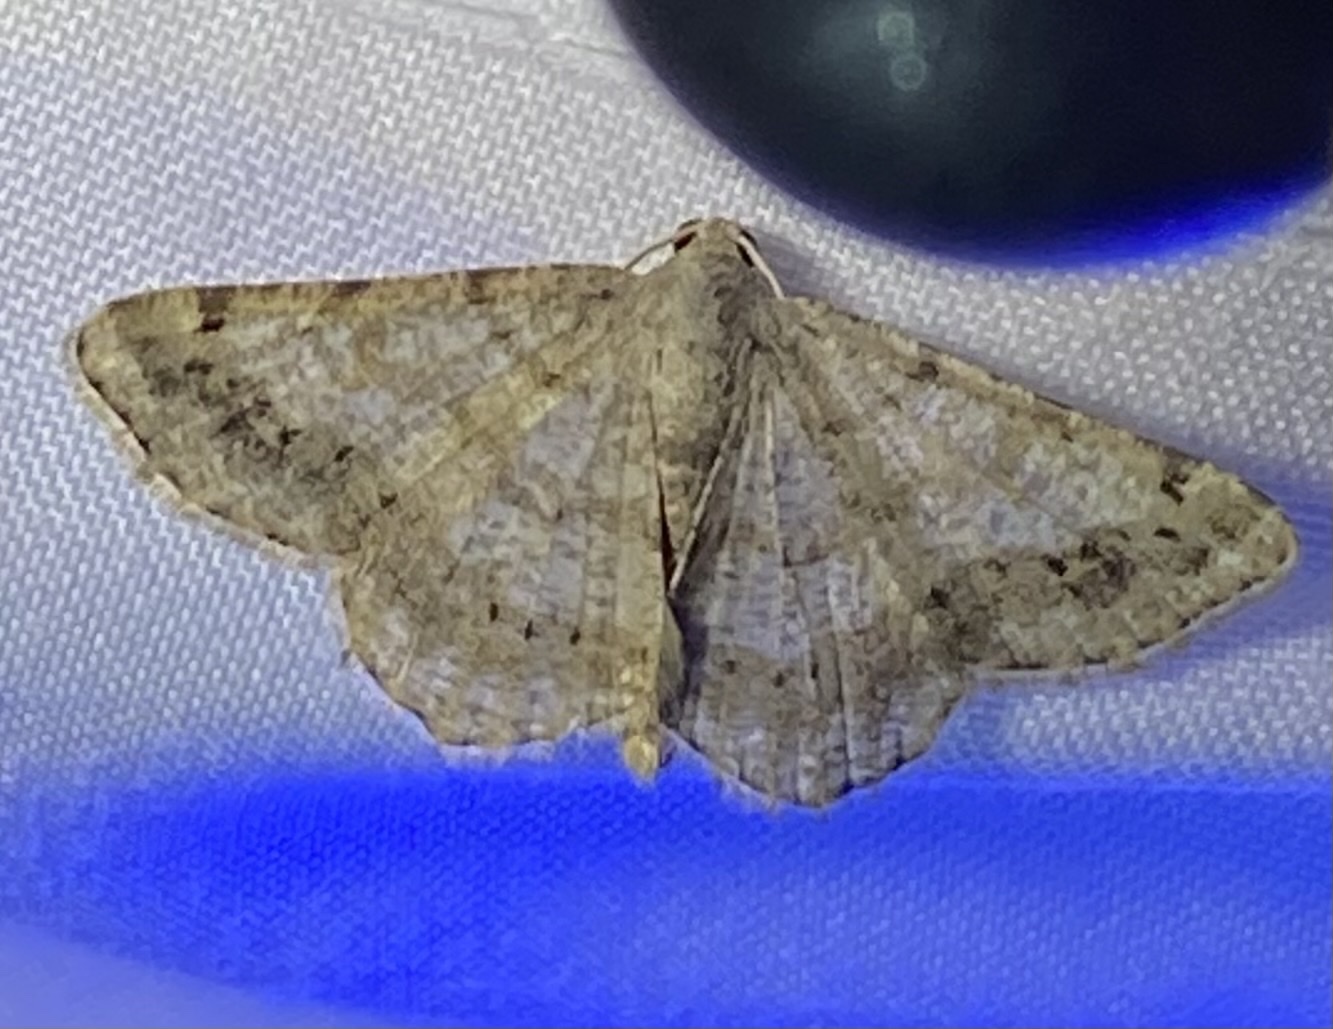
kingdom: Animalia
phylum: Arthropoda
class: Insecta
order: Lepidoptera
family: Geometridae
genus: Digrammia
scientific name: Digrammia ocellinata
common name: Faint-spotted angle
